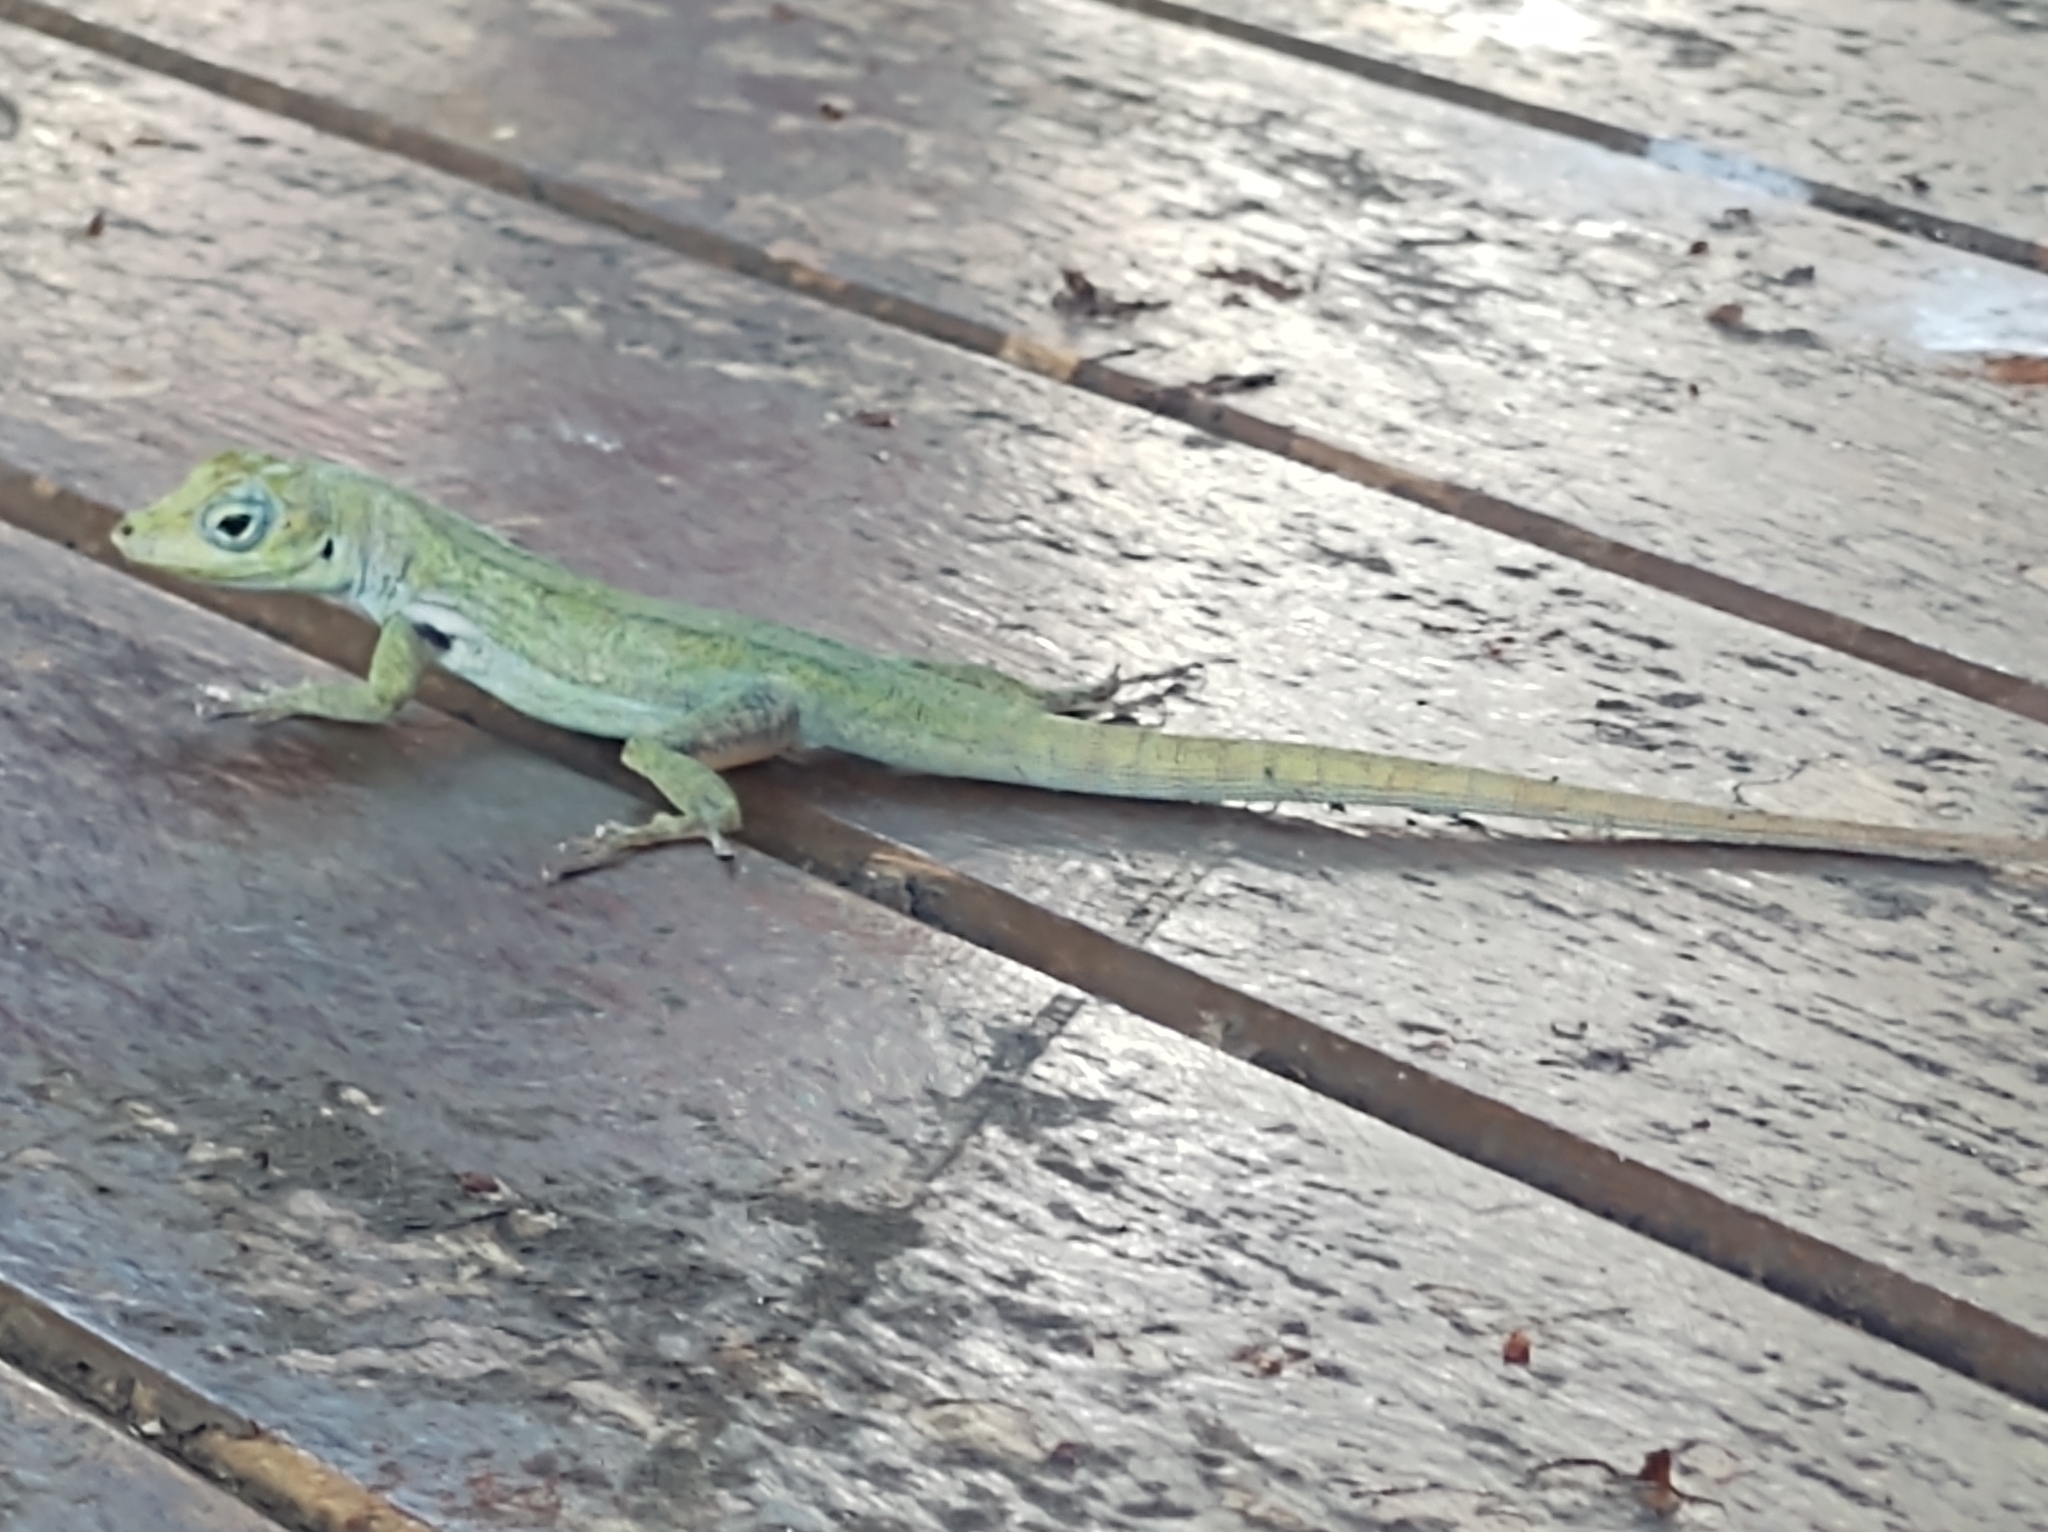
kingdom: Animalia
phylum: Chordata
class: Squamata
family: Dactyloidae
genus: Anolis
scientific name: Anolis roquet
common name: Martinique anole
